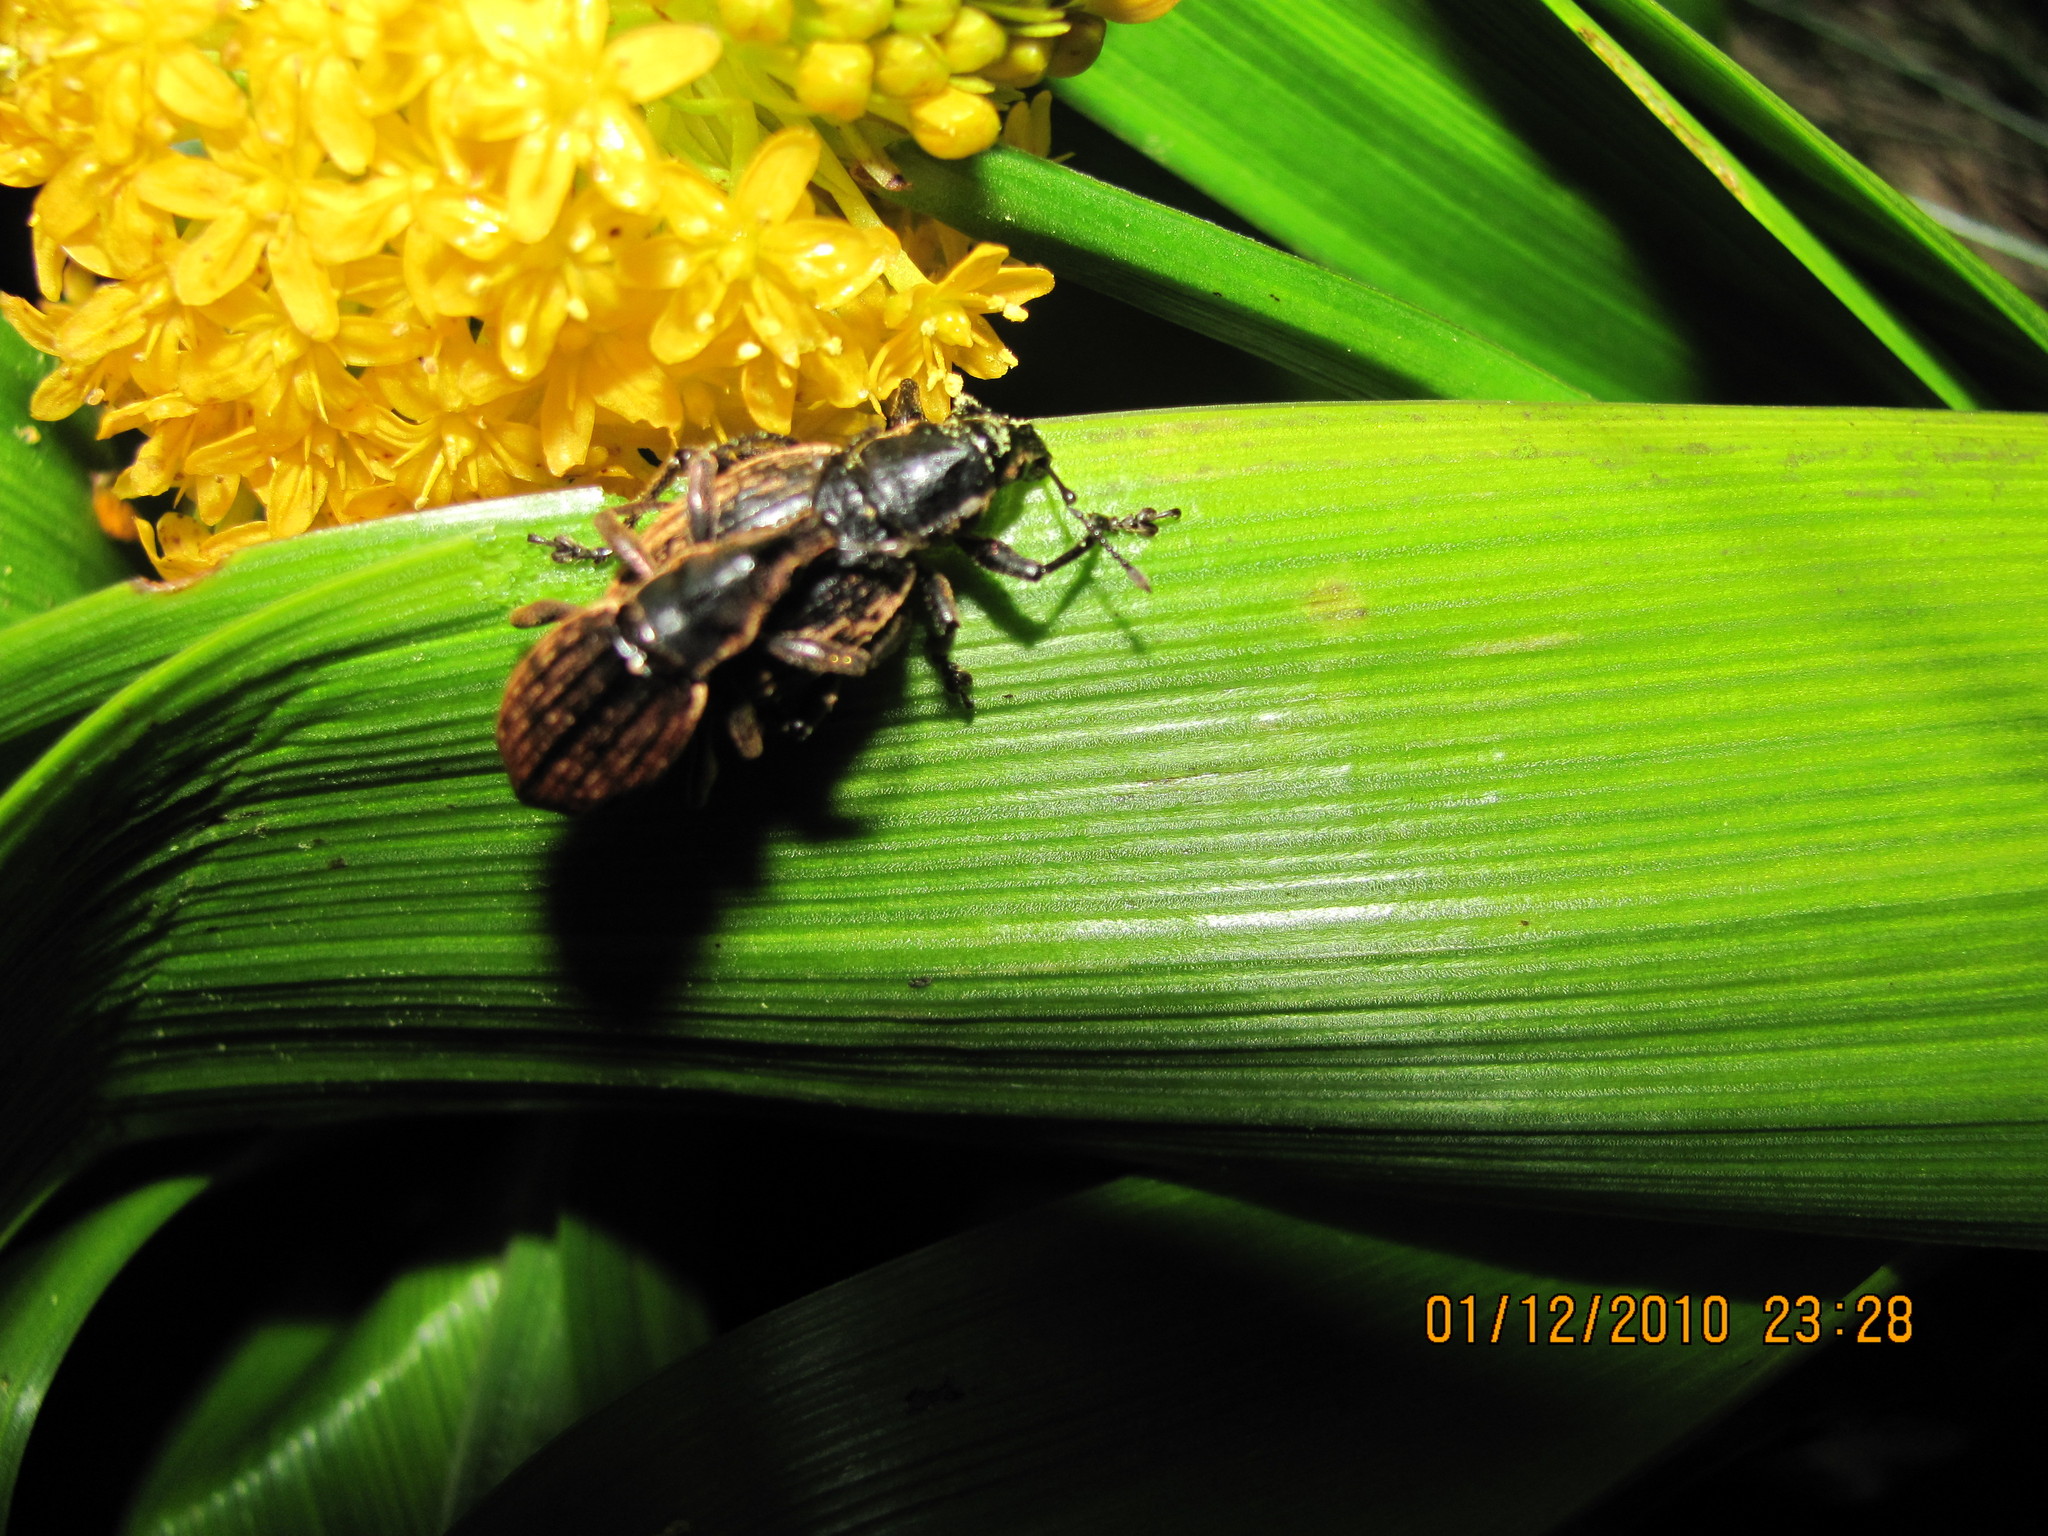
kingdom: Animalia
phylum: Arthropoda
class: Insecta
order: Coleoptera
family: Curculionidae
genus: Oclandius
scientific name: Oclandius cinereus
